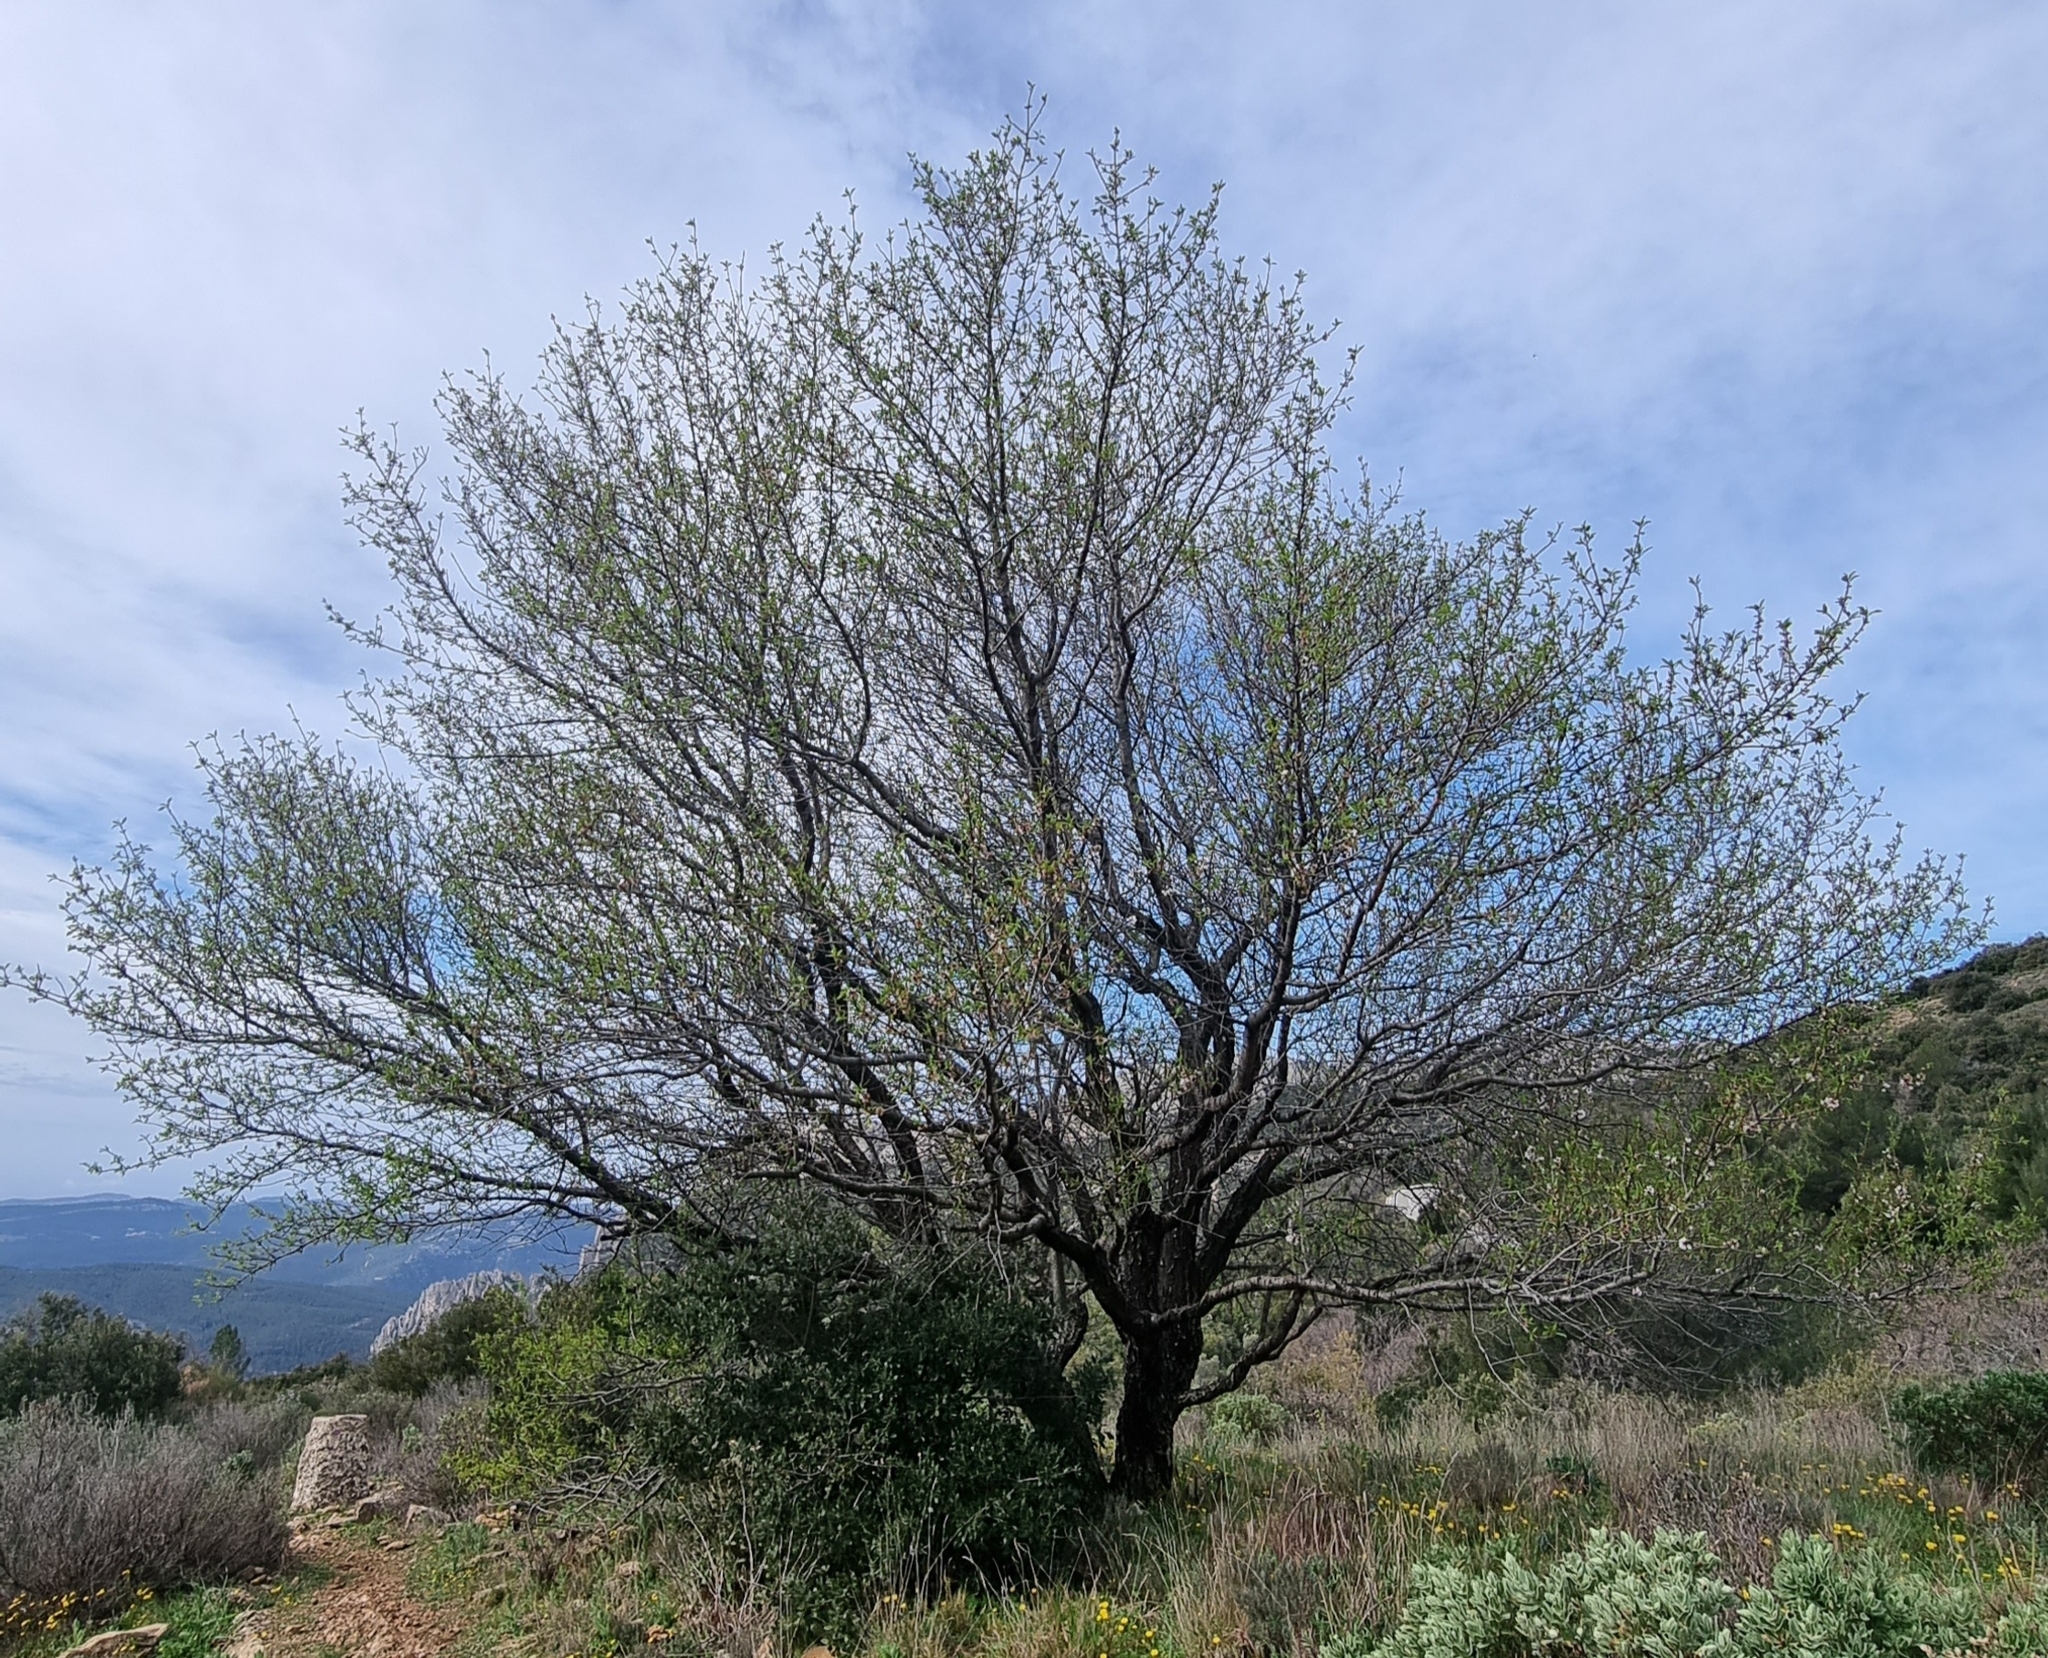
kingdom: Plantae
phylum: Tracheophyta
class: Magnoliopsida
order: Rosales
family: Rosaceae
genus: Prunus
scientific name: Prunus amygdalus
